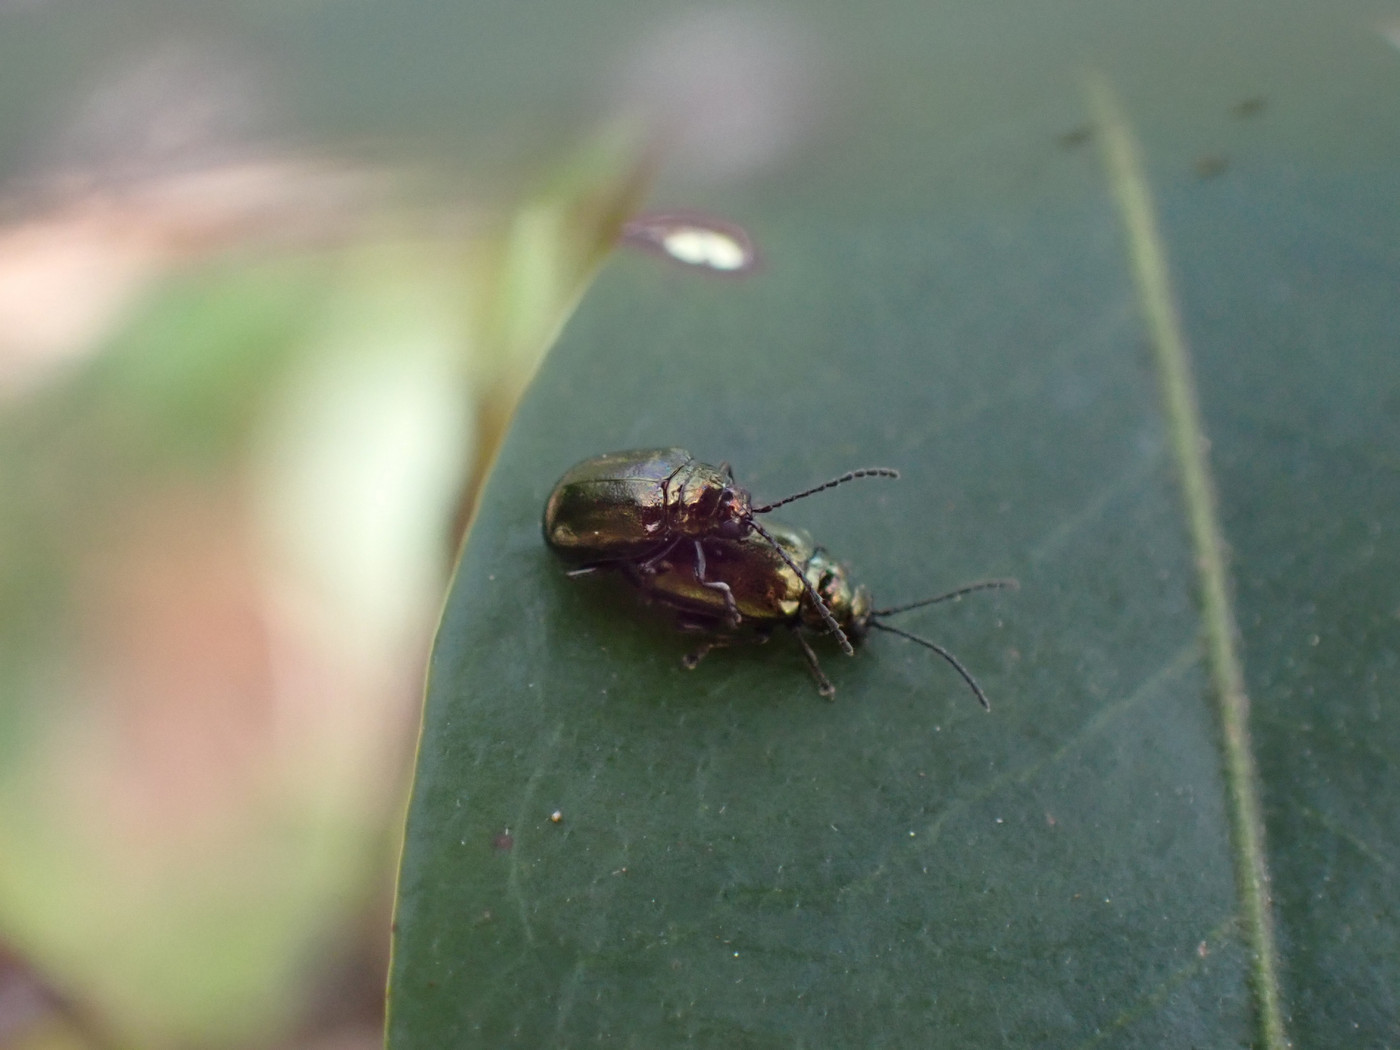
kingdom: Animalia
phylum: Arthropoda
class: Insecta
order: Coleoptera
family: Chrysomelidae
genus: Altica
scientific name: Altica
